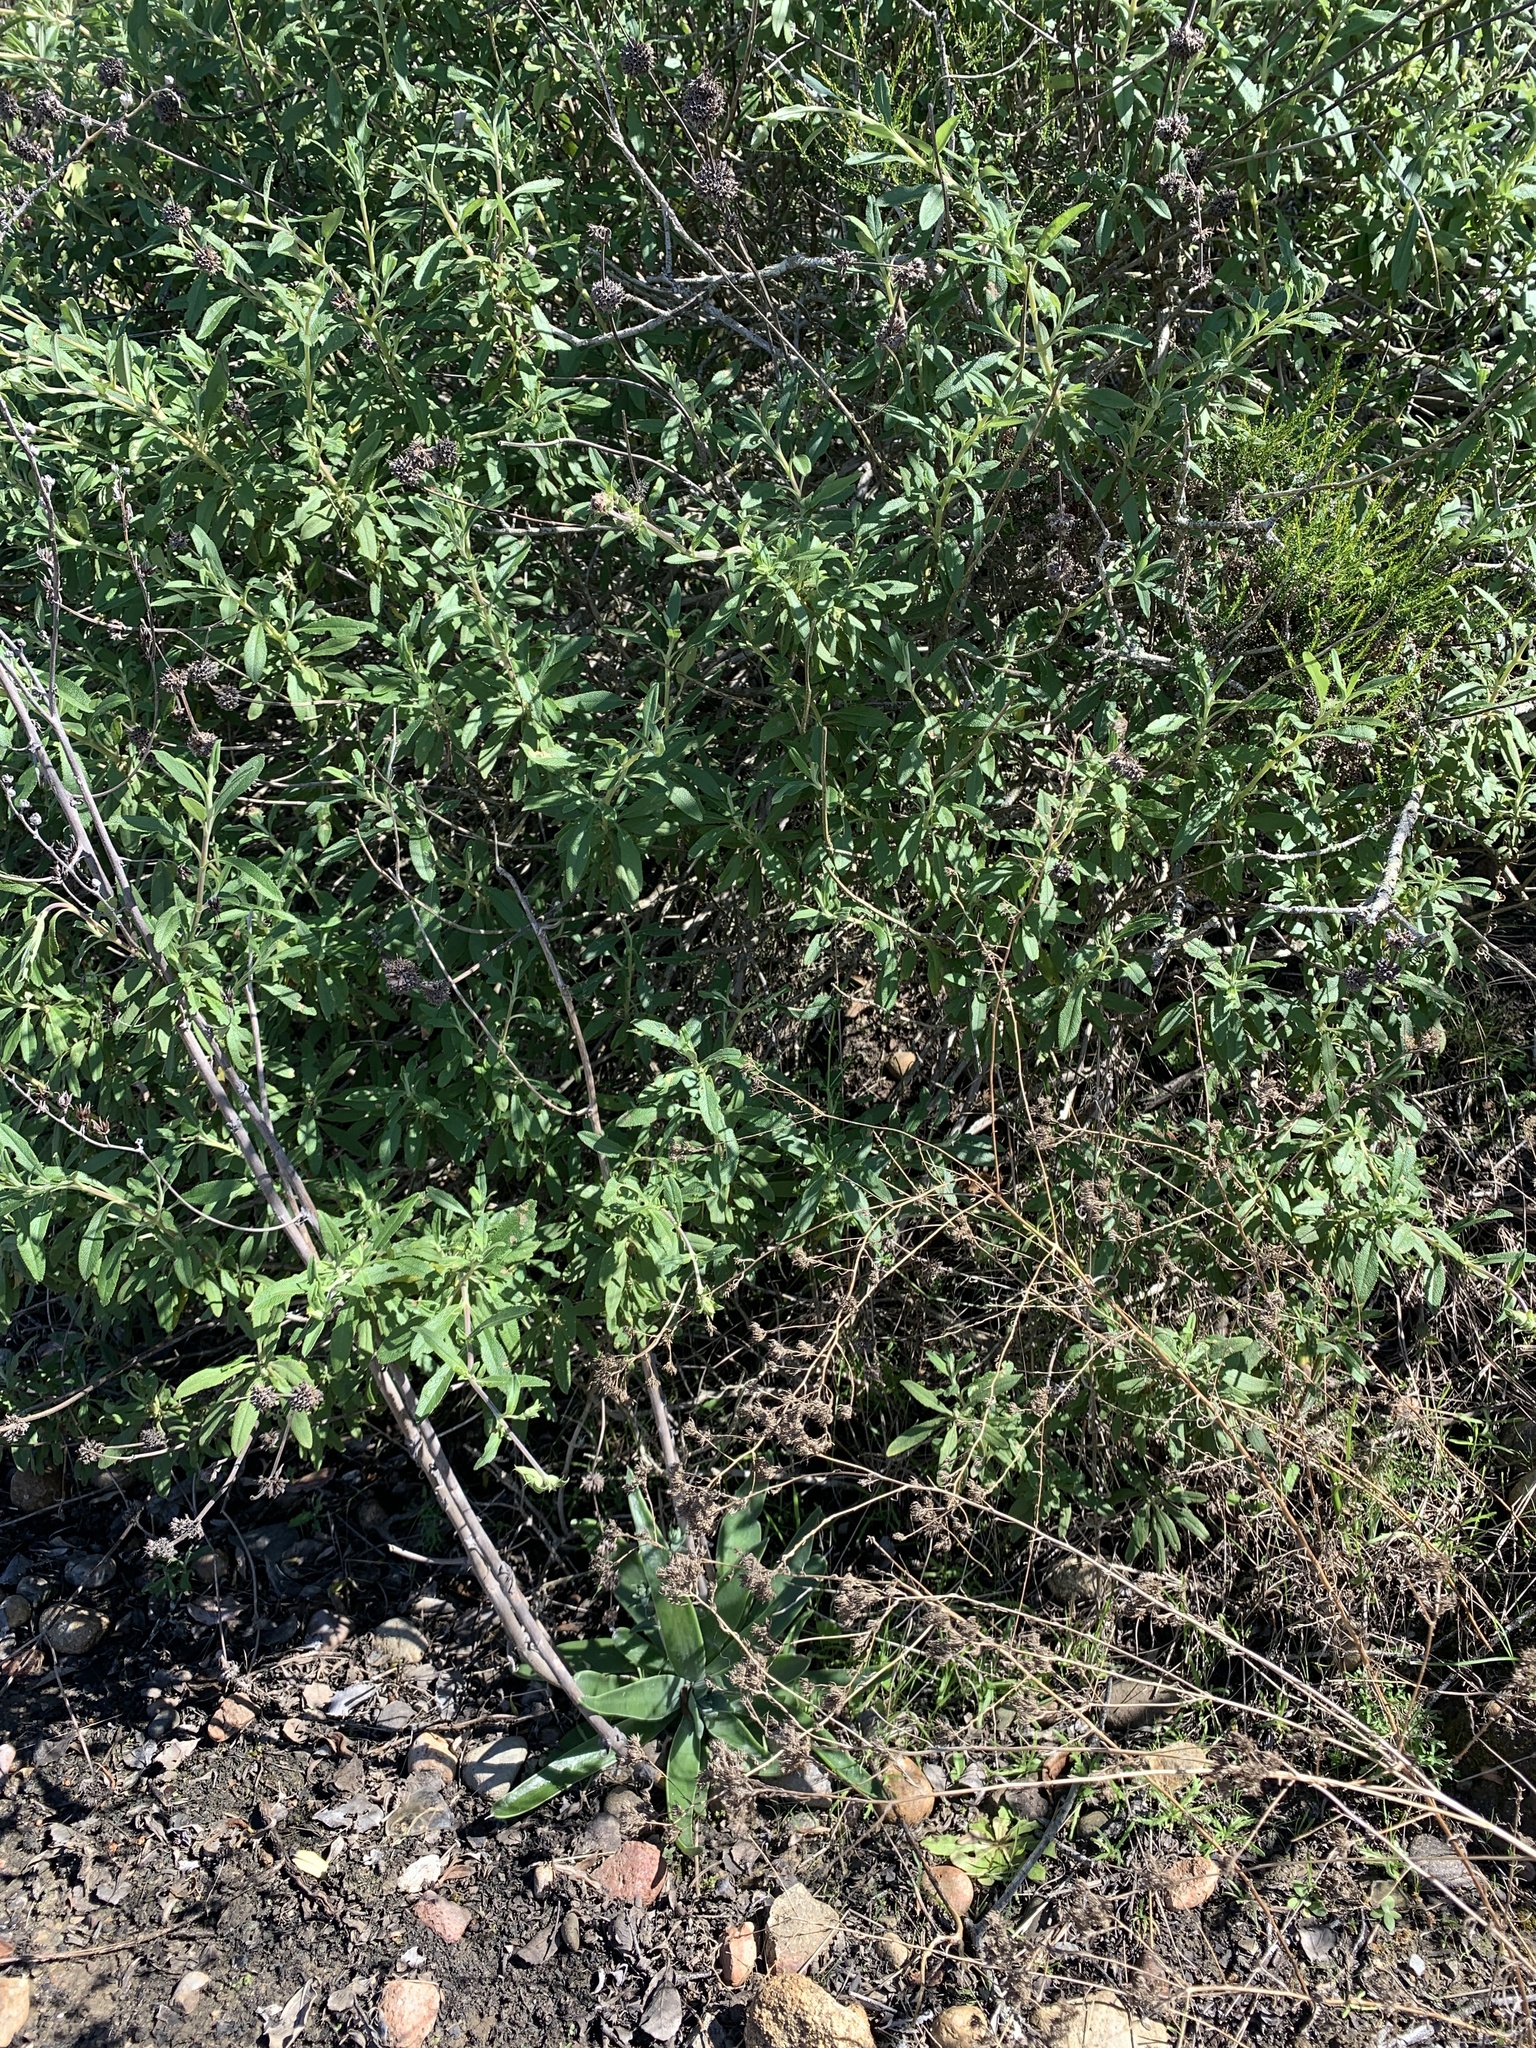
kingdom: Plantae
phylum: Tracheophyta
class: Magnoliopsida
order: Saxifragales
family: Crassulaceae
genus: Dudleya
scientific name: Dudleya lanceolata
